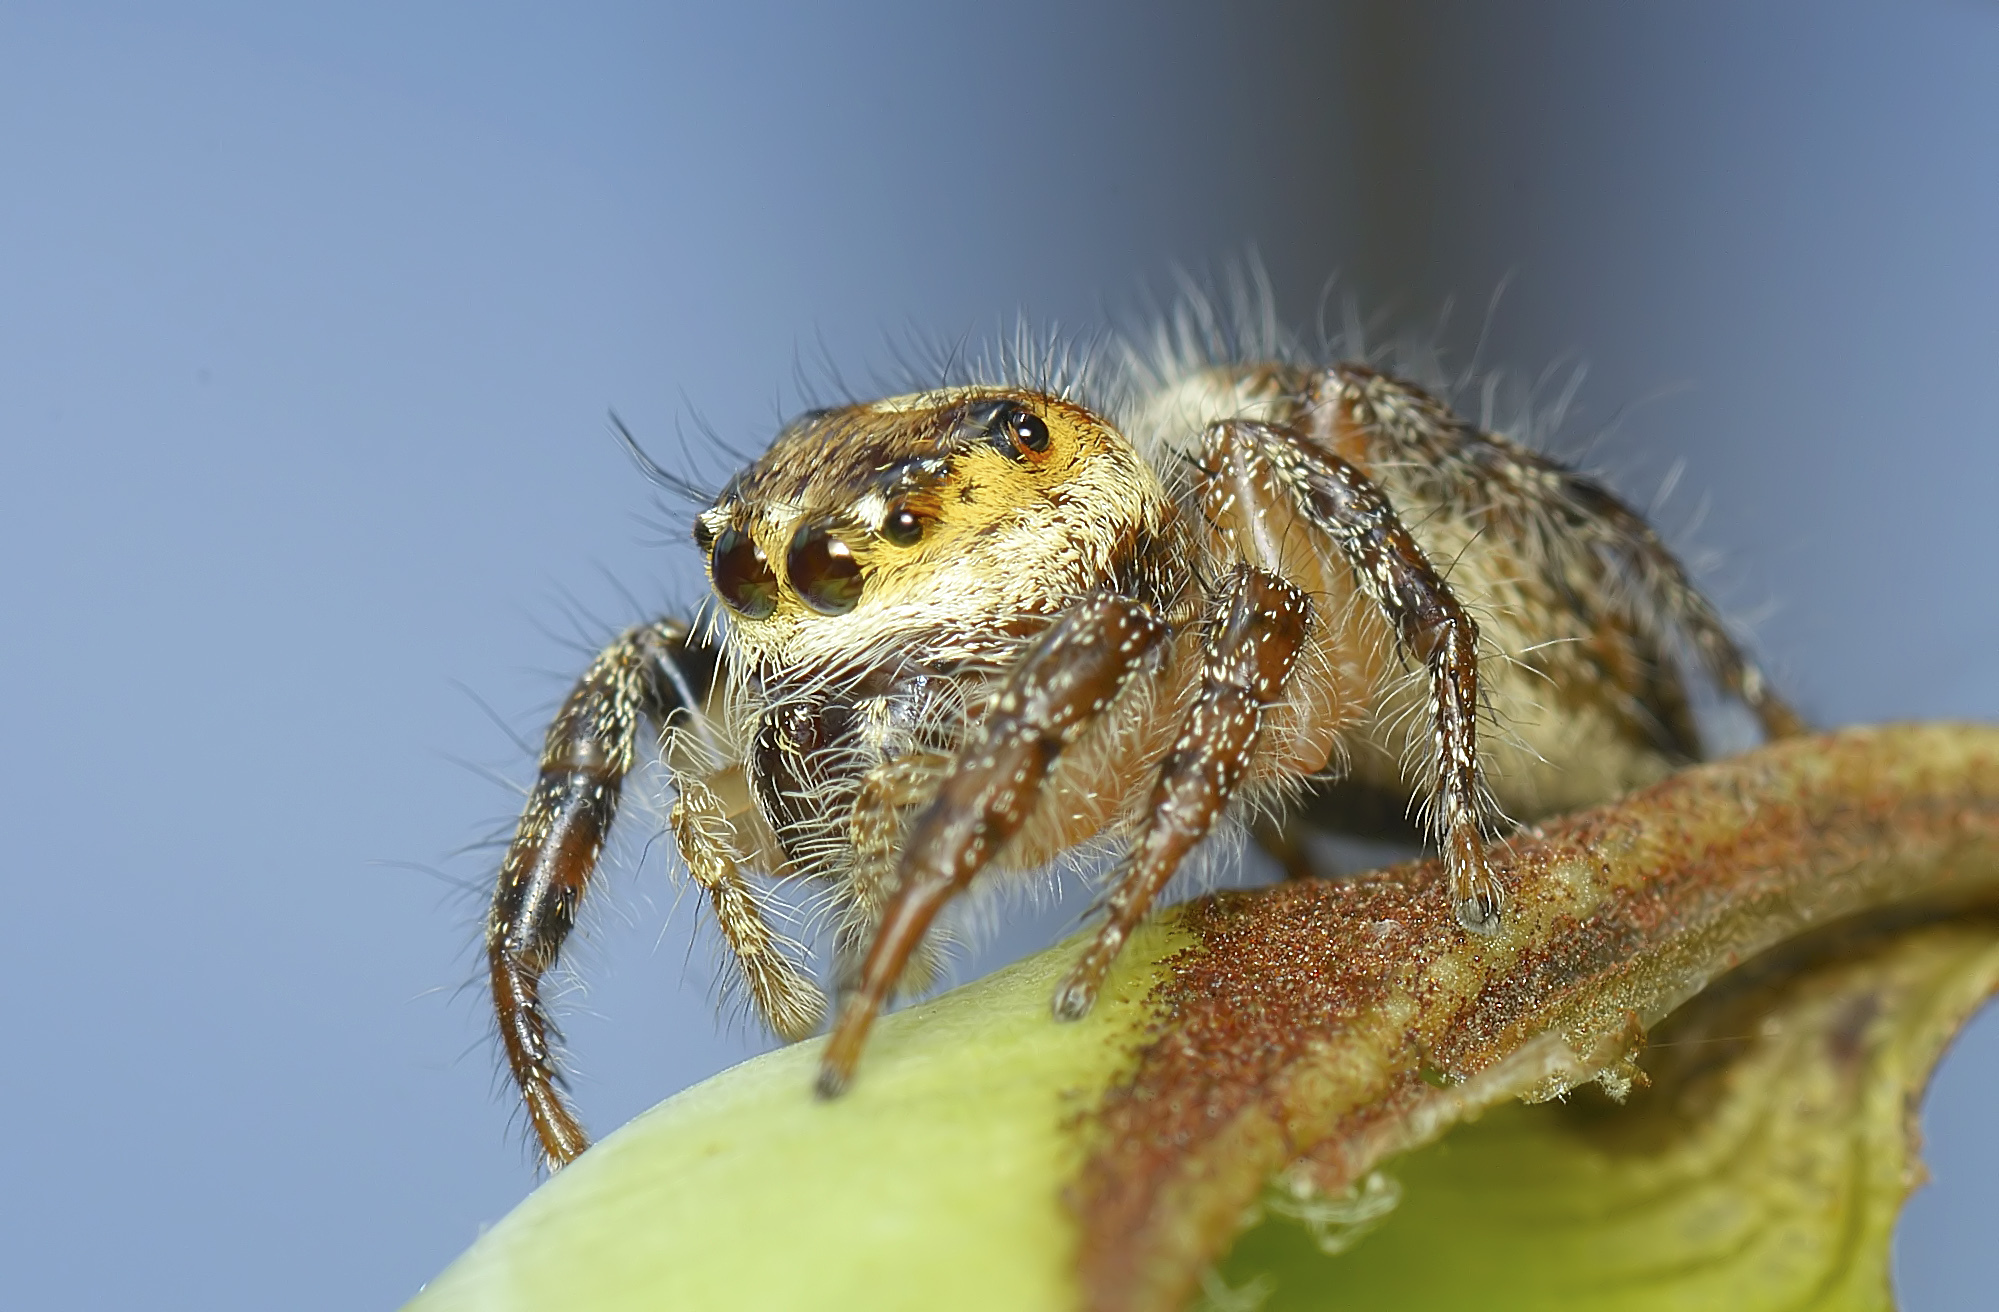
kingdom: Animalia
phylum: Arthropoda
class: Arachnida
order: Araneae
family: Salticidae
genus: Hyllus
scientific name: Hyllus semicupreus
